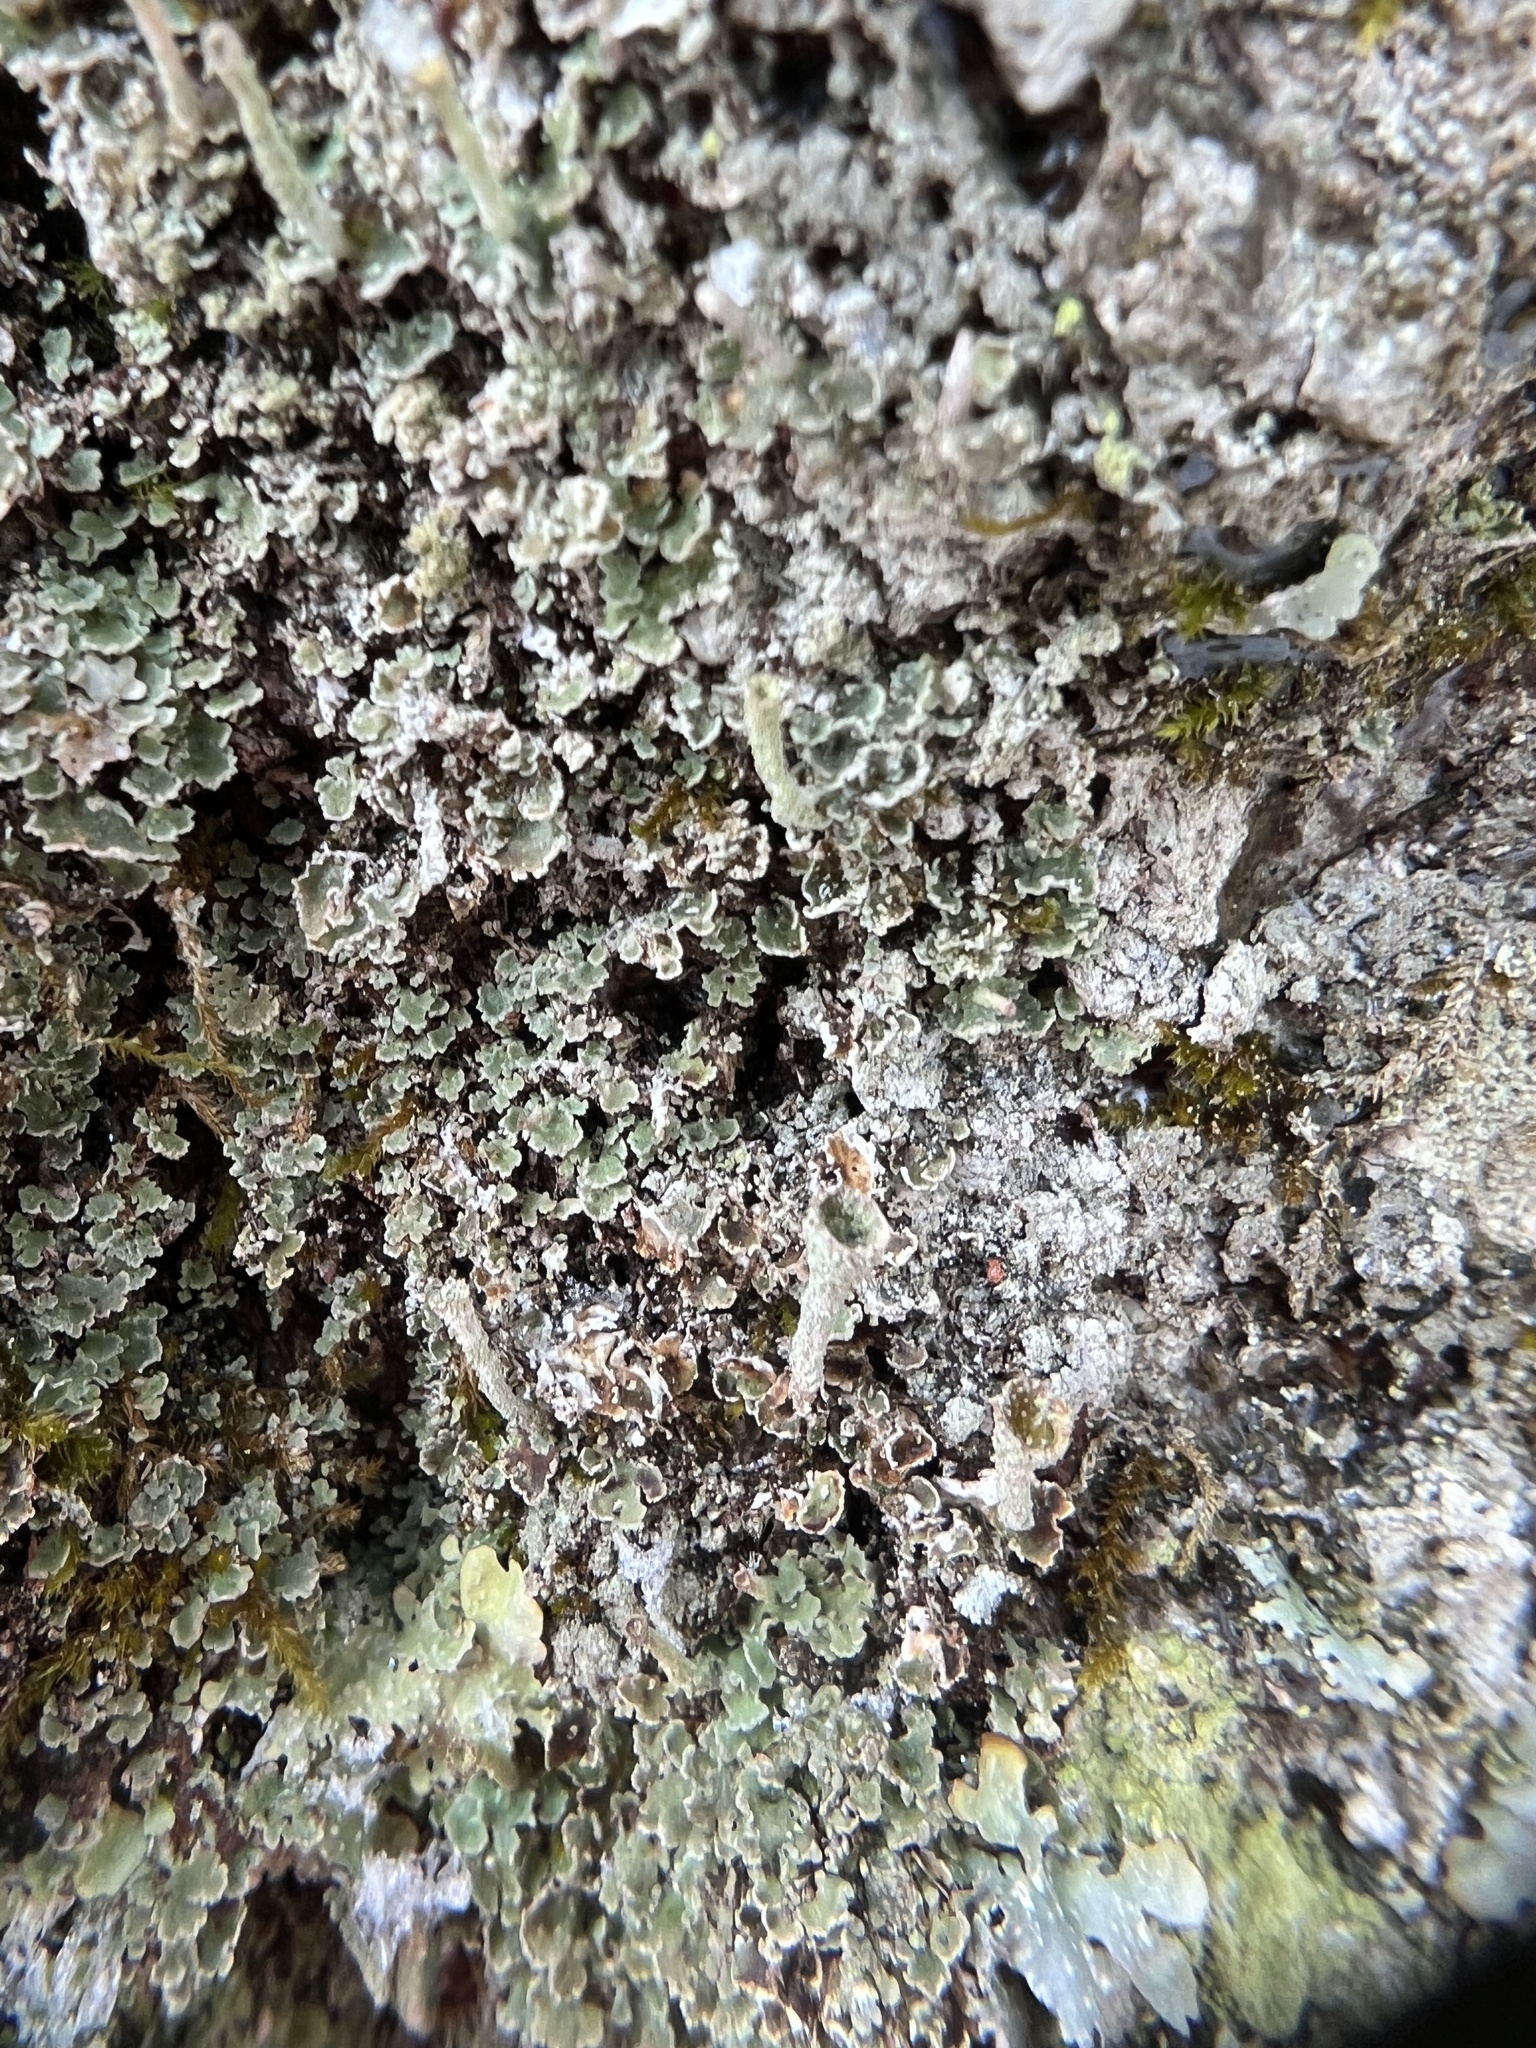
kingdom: Fungi
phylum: Ascomycota
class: Lecanoromycetes
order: Lecanorales
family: Cladoniaceae
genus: Cladonia
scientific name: Cladonia coniocraea
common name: Common powderhorn
